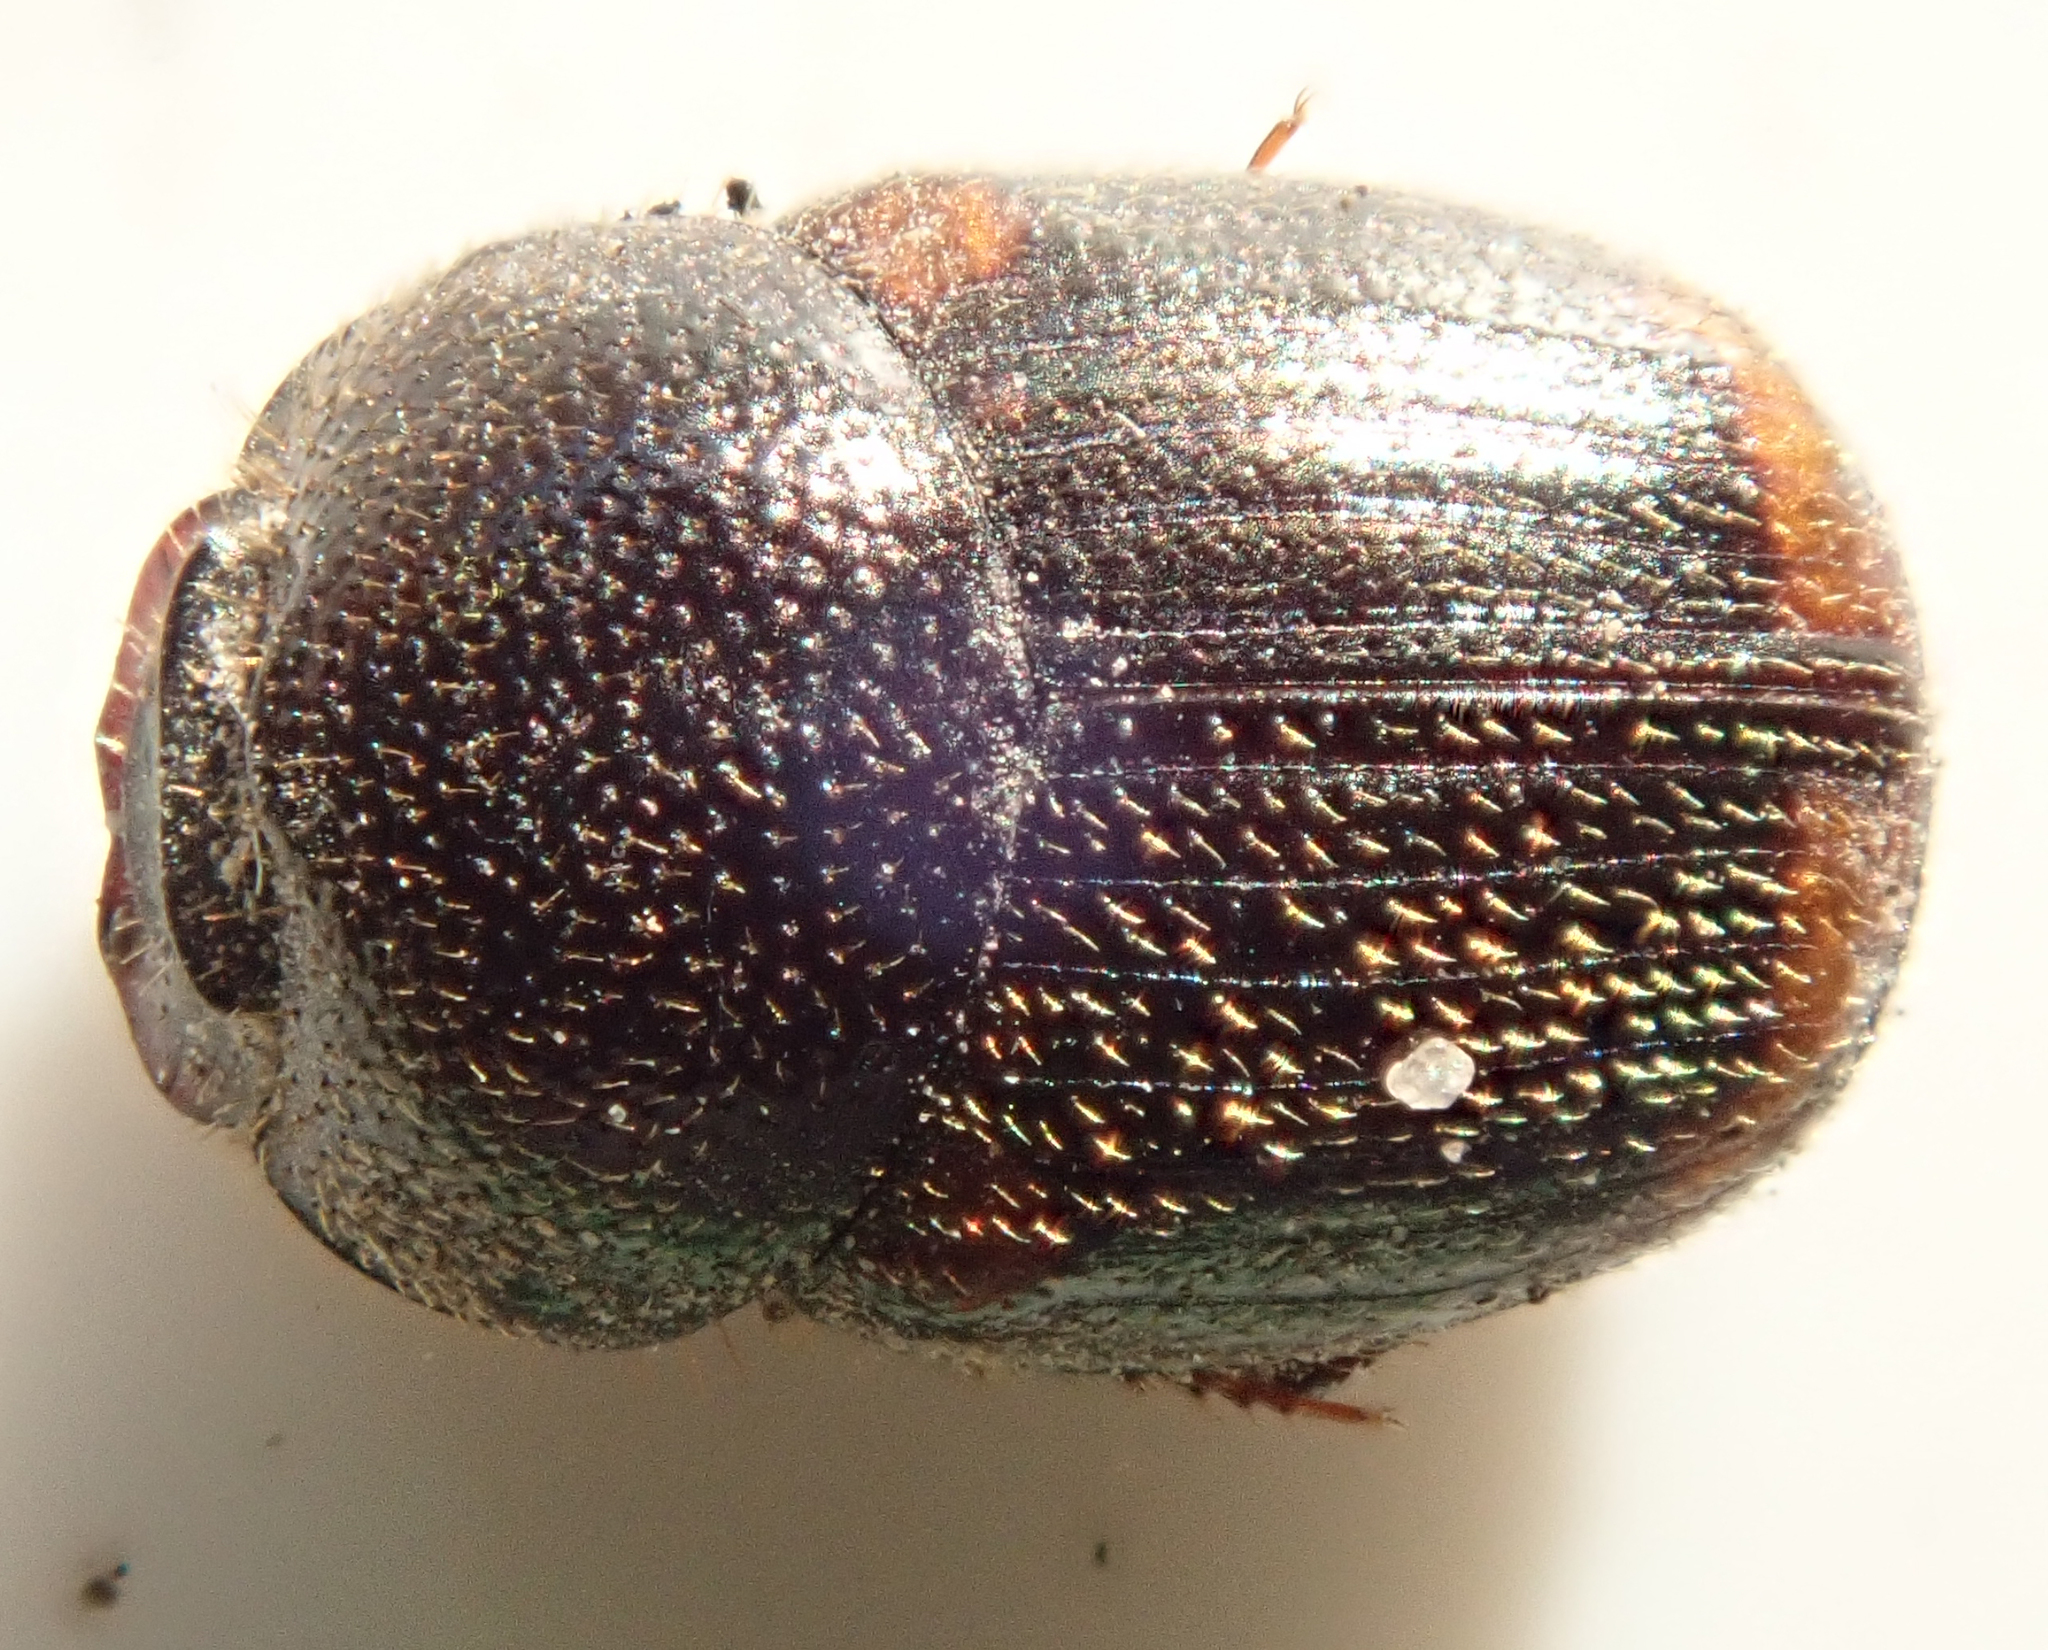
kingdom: Animalia
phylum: Arthropoda
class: Insecta
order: Coleoptera
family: Scarabaeidae
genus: Onthophagus
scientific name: Onthophagus quadrimaculatus
